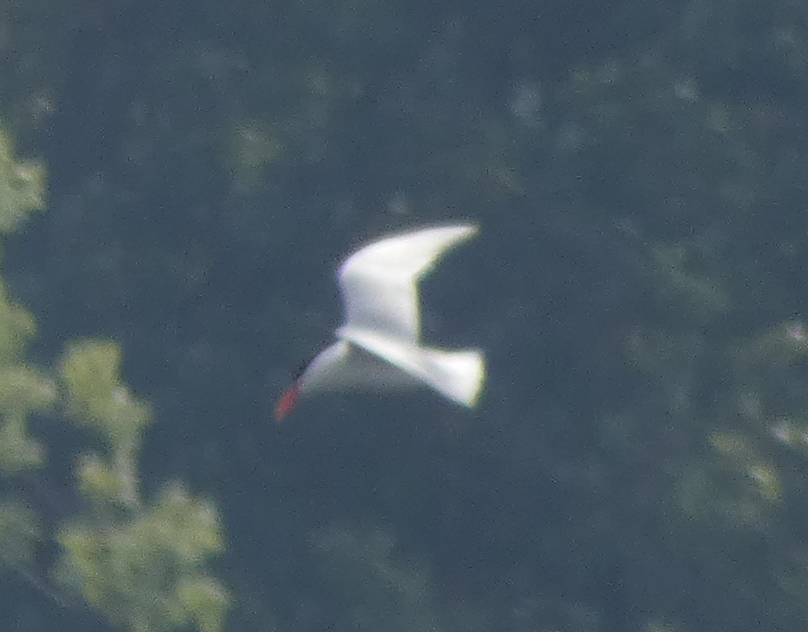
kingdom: Animalia
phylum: Chordata
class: Aves
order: Charadriiformes
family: Laridae
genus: Hydroprogne
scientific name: Hydroprogne caspia
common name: Caspian tern
